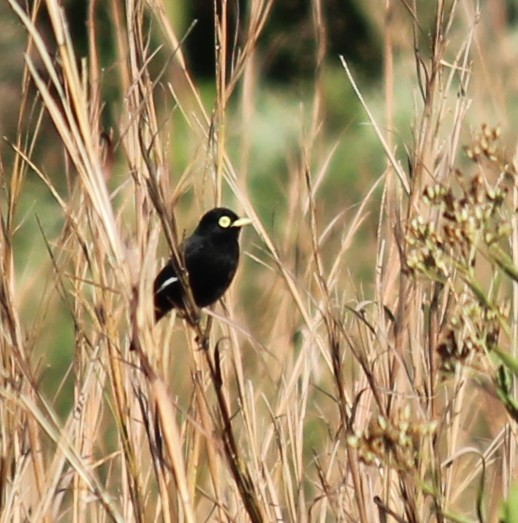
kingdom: Animalia
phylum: Chordata
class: Aves
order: Passeriformes
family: Tyrannidae
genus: Hymenops
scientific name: Hymenops perspicillatus
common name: Spectacled tyrant
